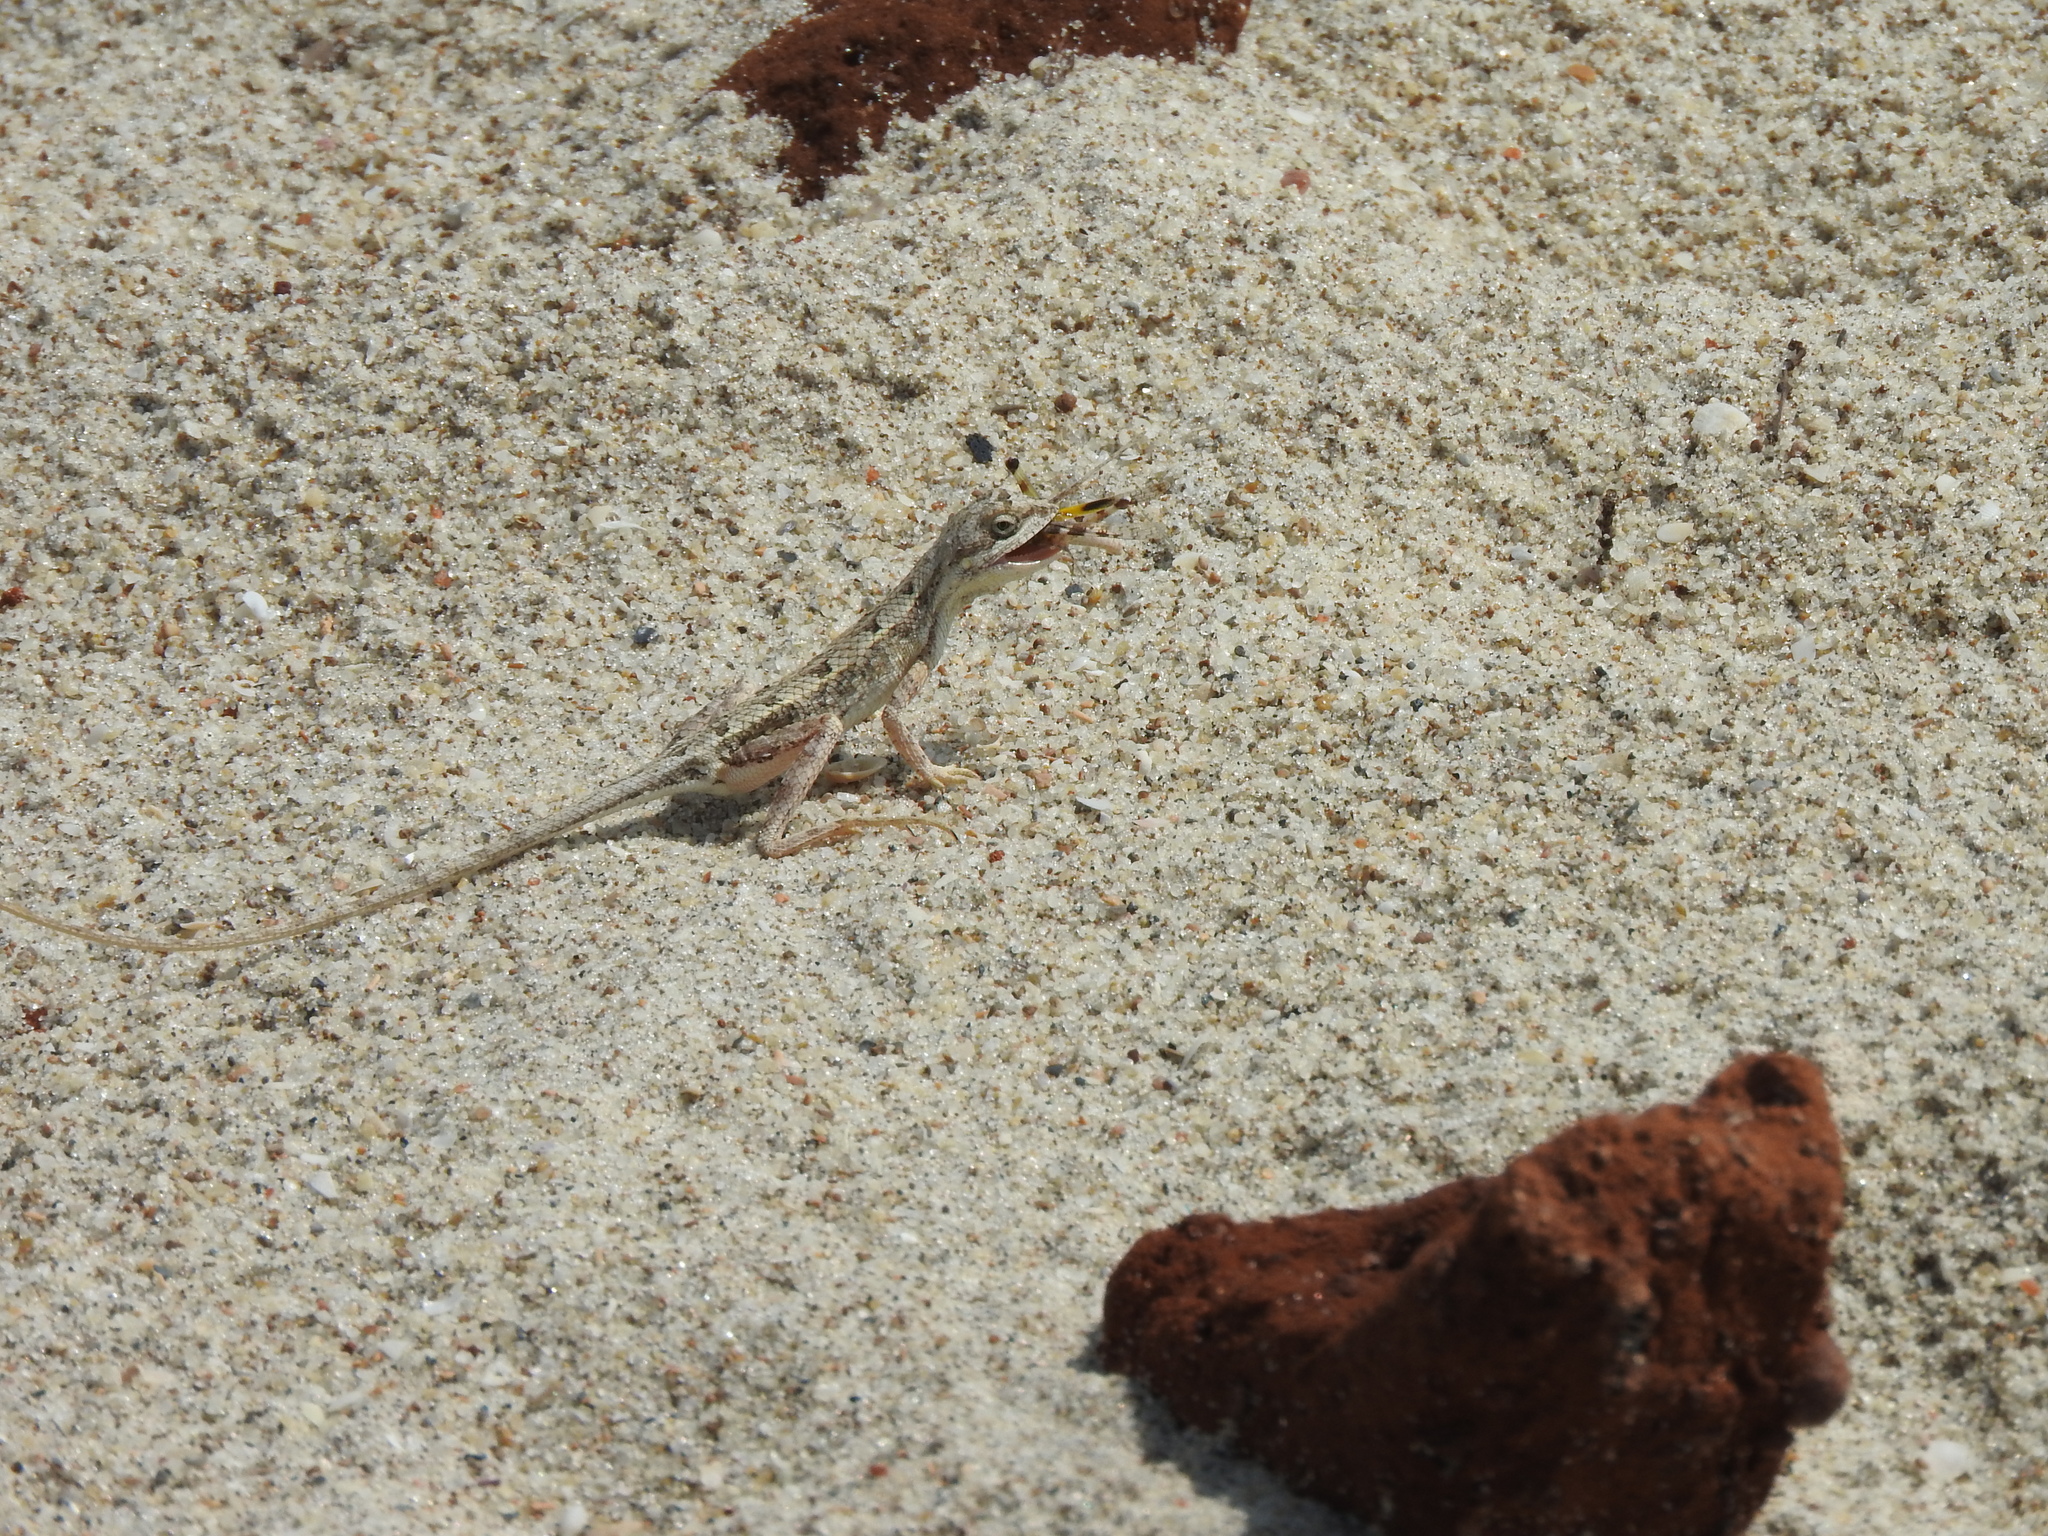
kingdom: Animalia
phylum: Chordata
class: Squamata
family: Agamidae
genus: Sitana
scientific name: Sitana visiri
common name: Palm leaf fan-throated lizard
